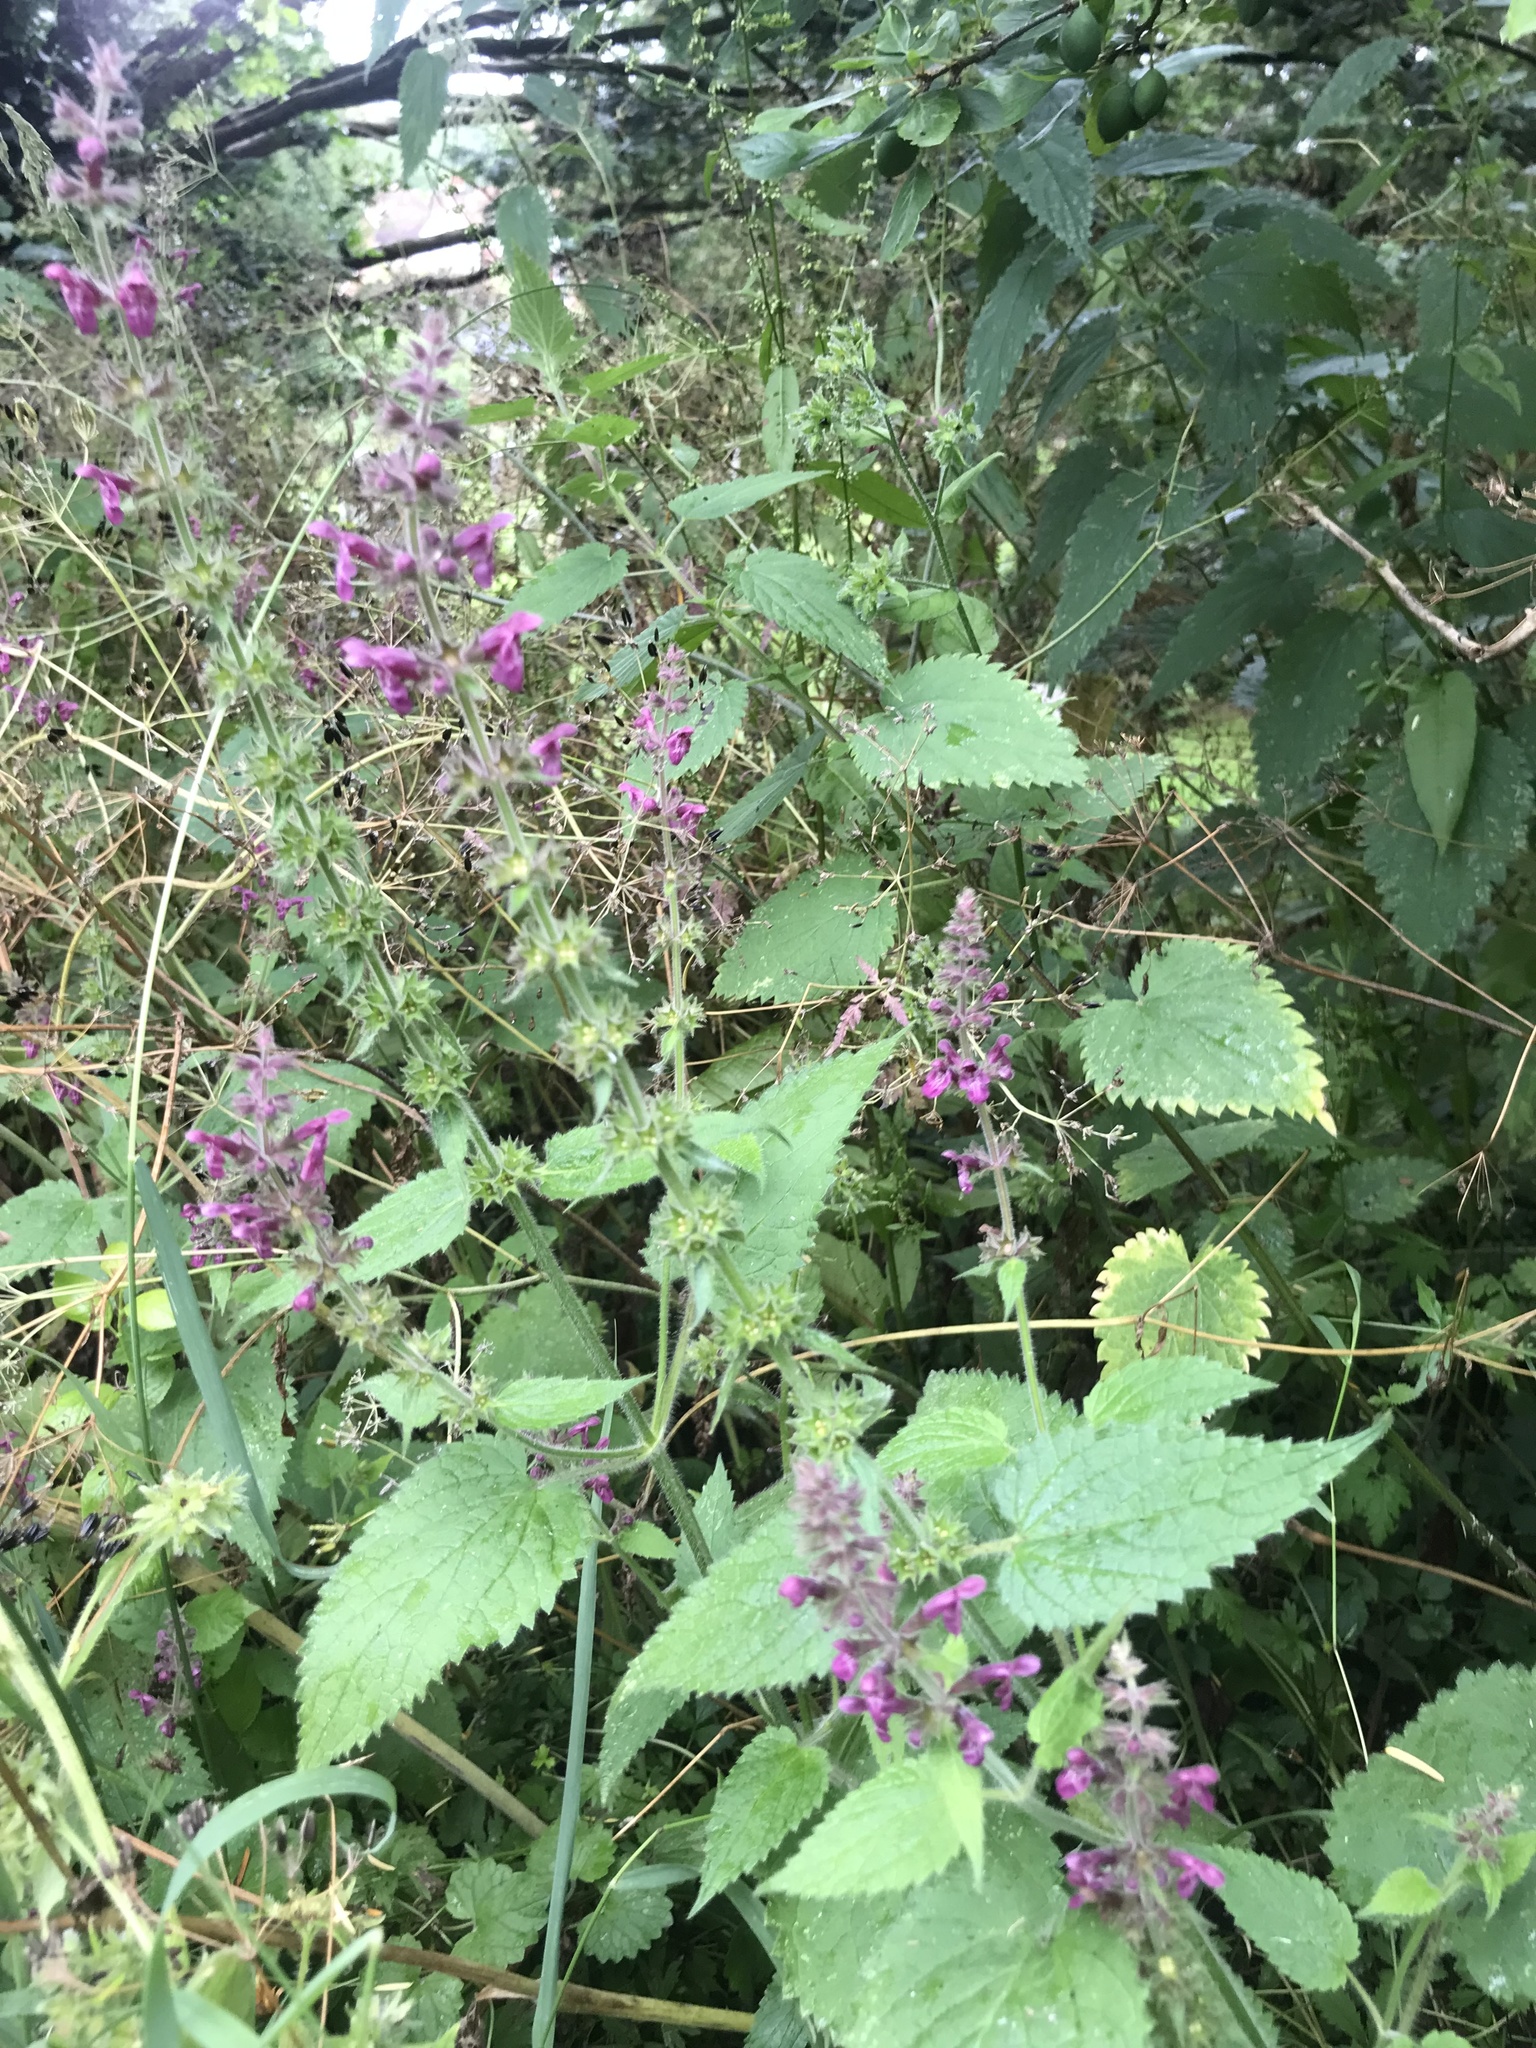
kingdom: Plantae
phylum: Tracheophyta
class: Magnoliopsida
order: Lamiales
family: Lamiaceae
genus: Stachys
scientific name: Stachys sylvatica
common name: Hedge woundwort
